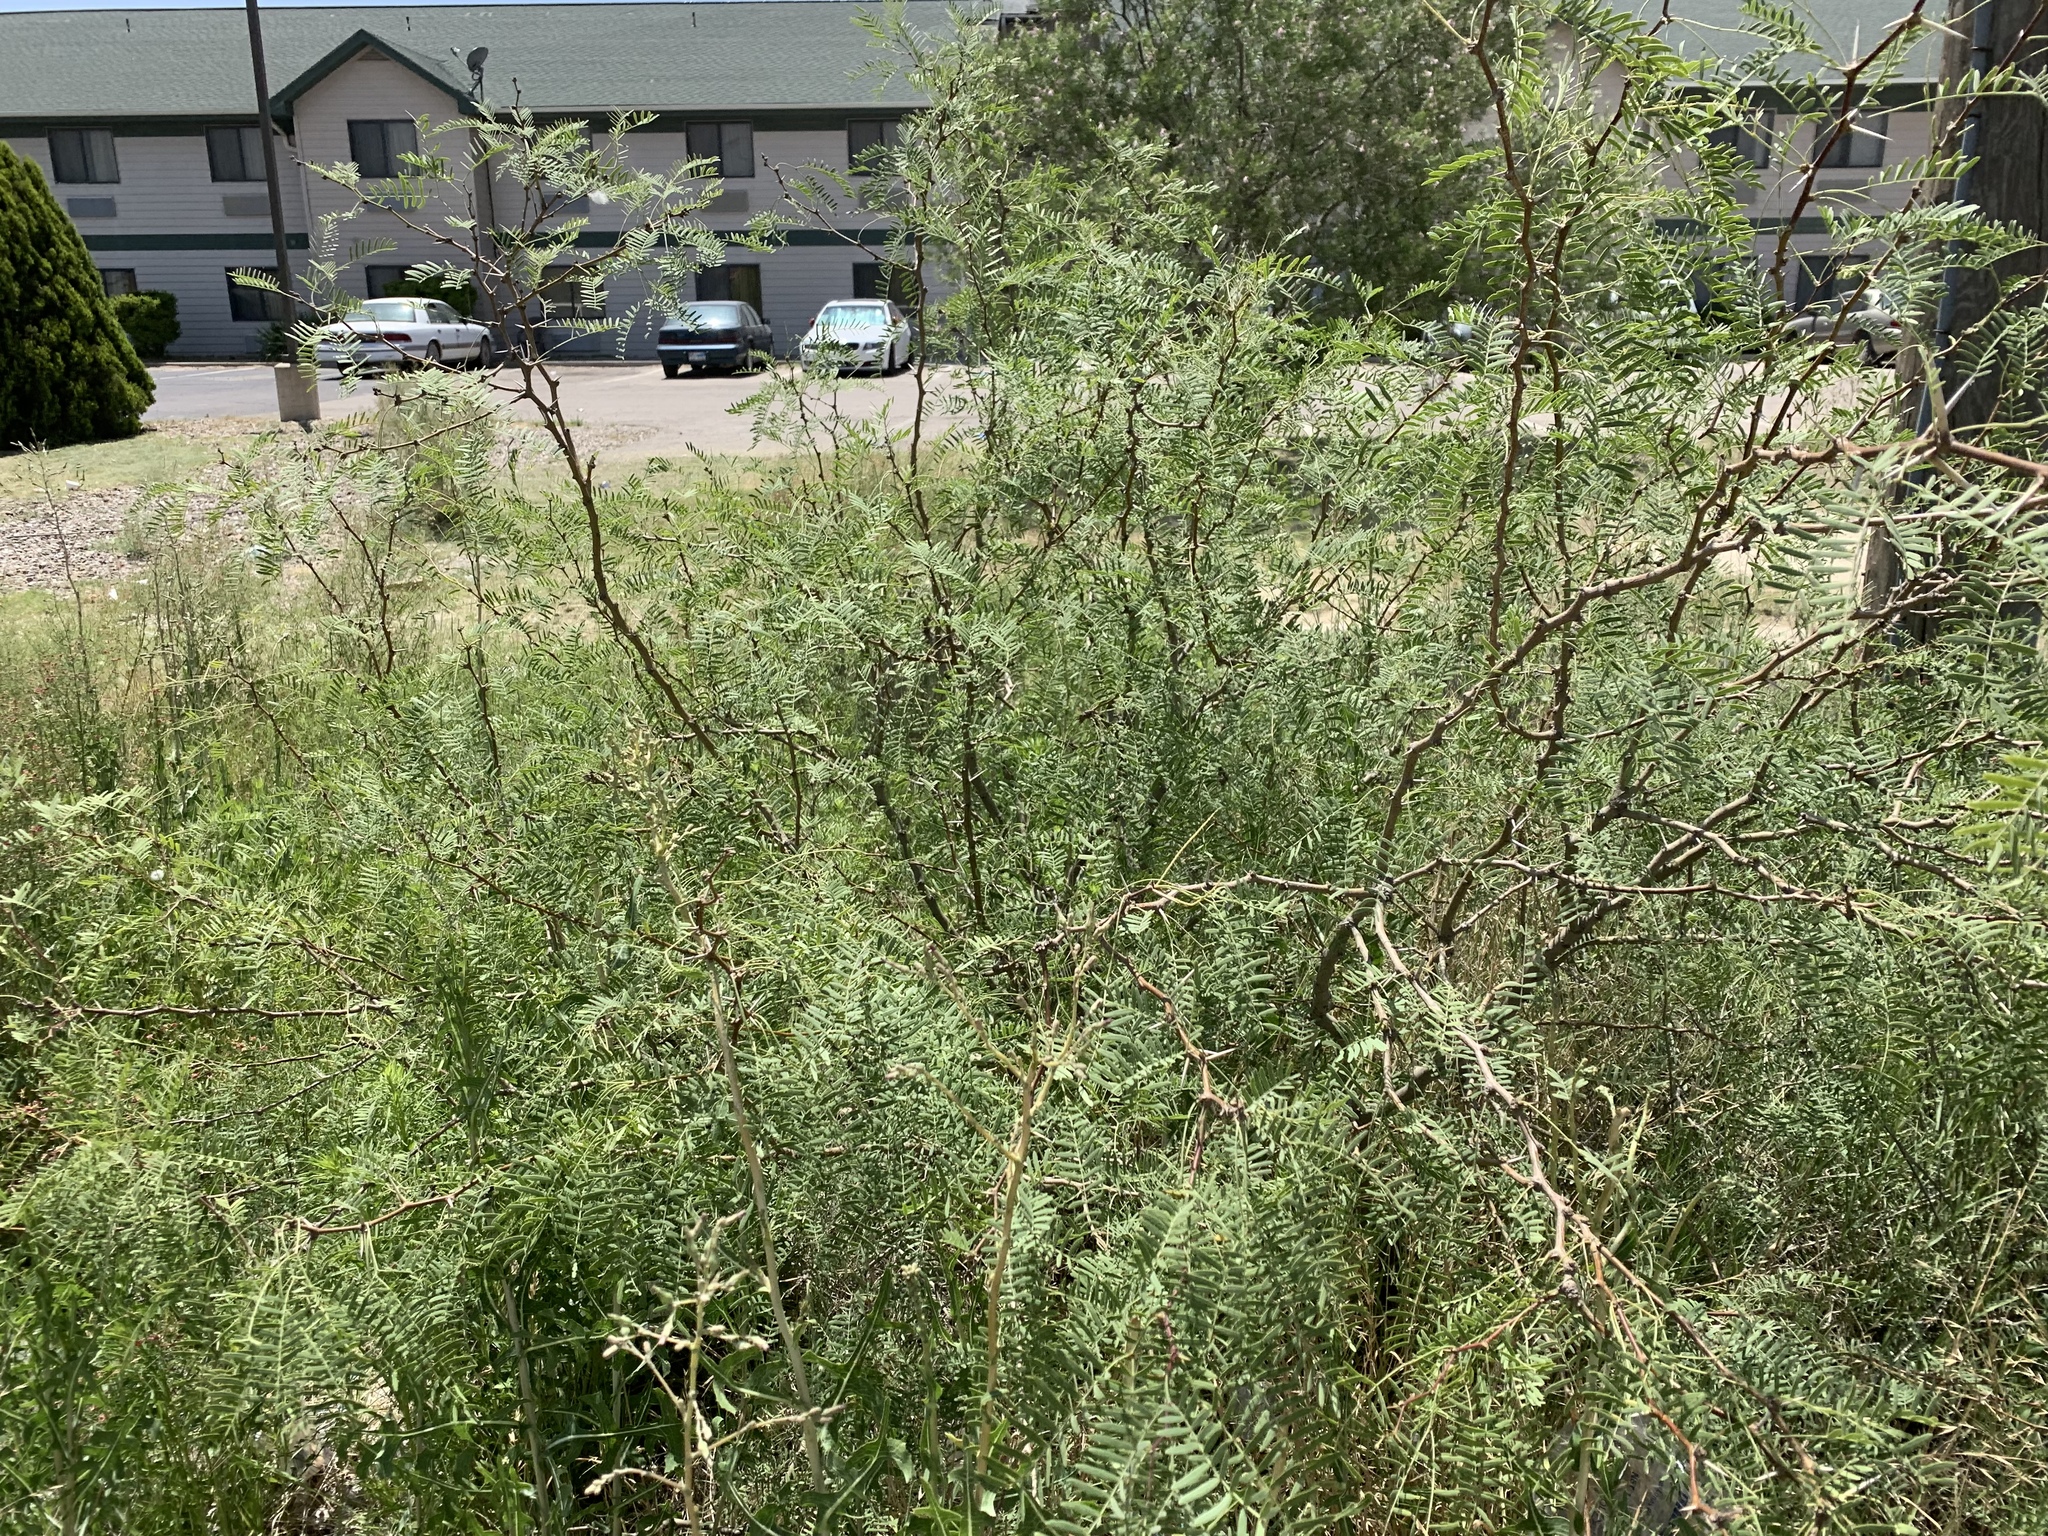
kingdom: Plantae
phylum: Tracheophyta
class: Magnoliopsida
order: Fabales
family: Fabaceae
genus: Prosopis
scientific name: Prosopis glandulosa
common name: Honey mesquite
